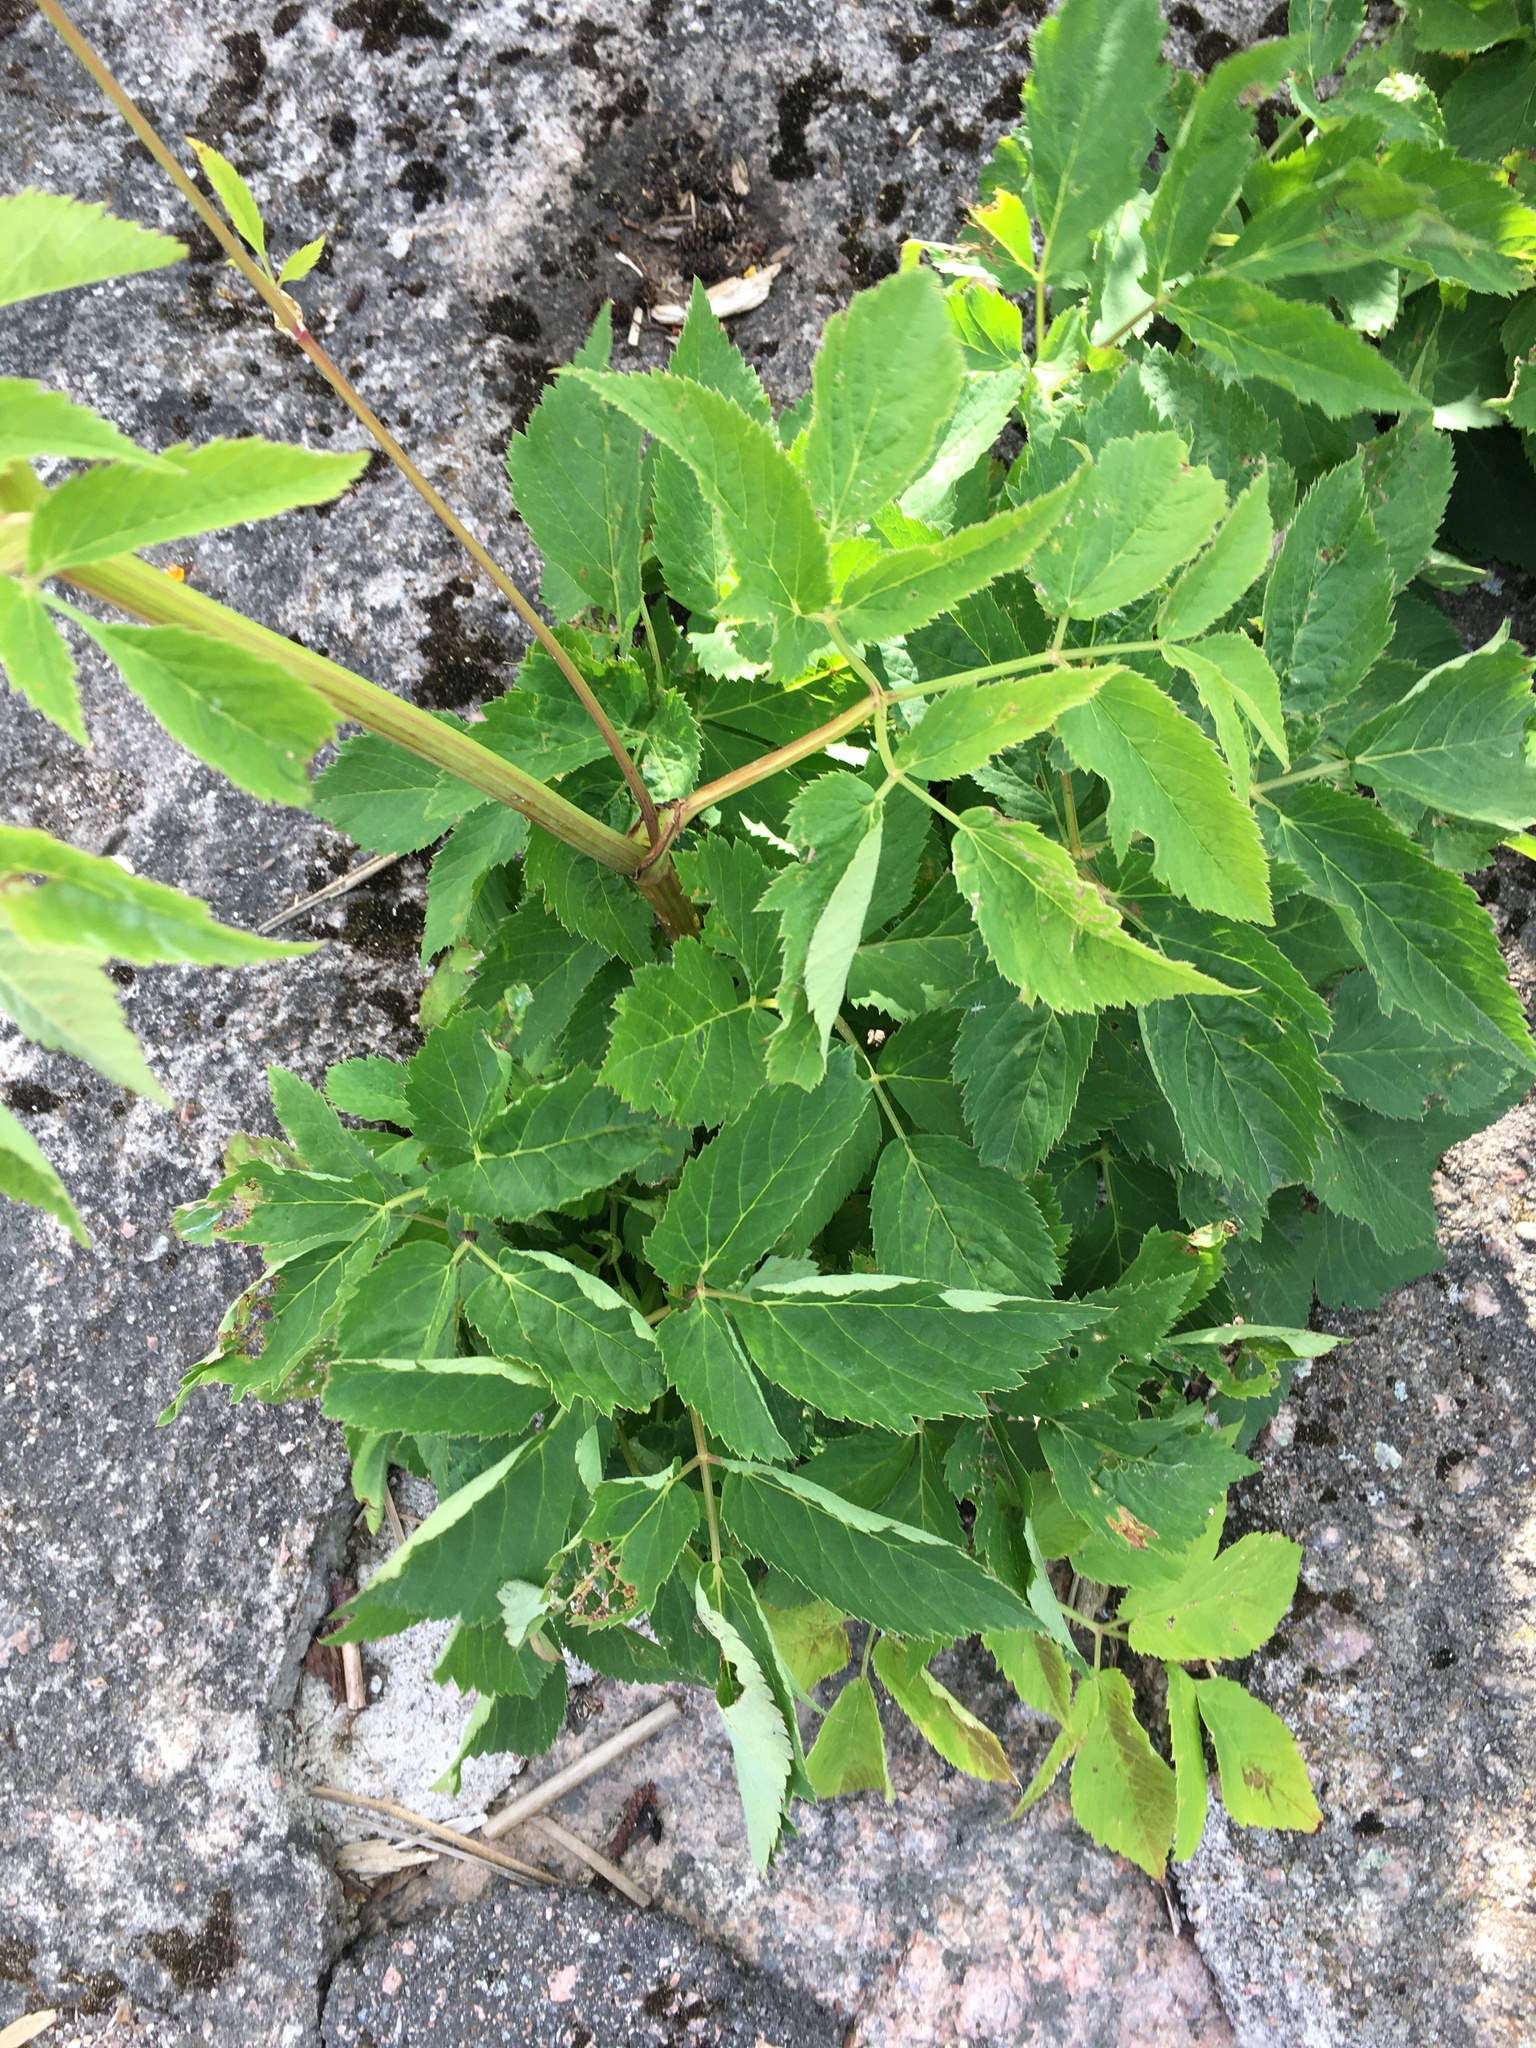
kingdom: Plantae
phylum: Tracheophyta
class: Magnoliopsida
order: Apiales
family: Apiaceae
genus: Aegopodium
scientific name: Aegopodium podagraria
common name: Ground-elder
